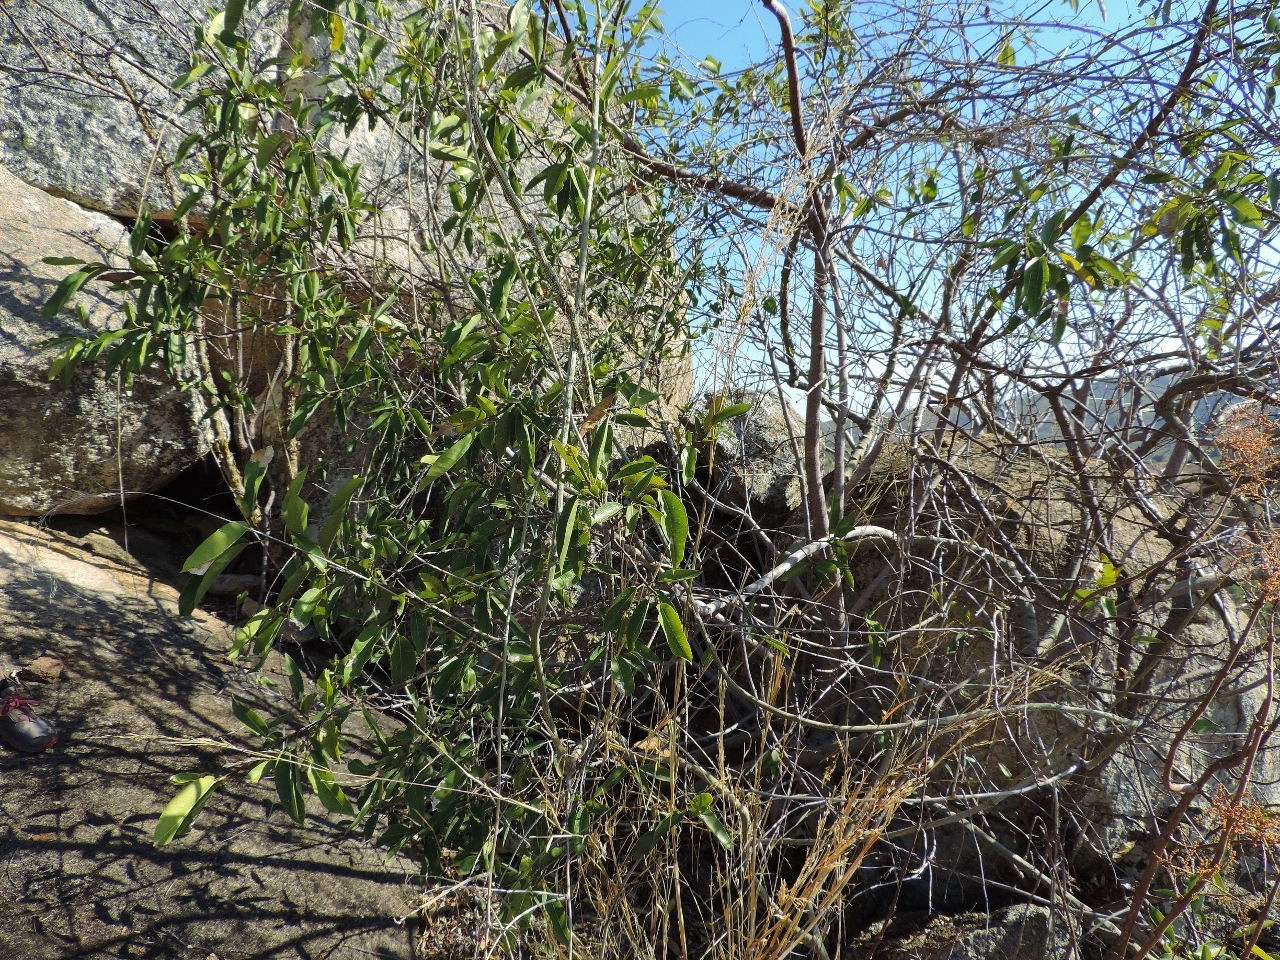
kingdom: Plantae
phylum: Tracheophyta
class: Magnoliopsida
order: Rosales
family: Moraceae
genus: Ficus
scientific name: Ficus salicifolia
